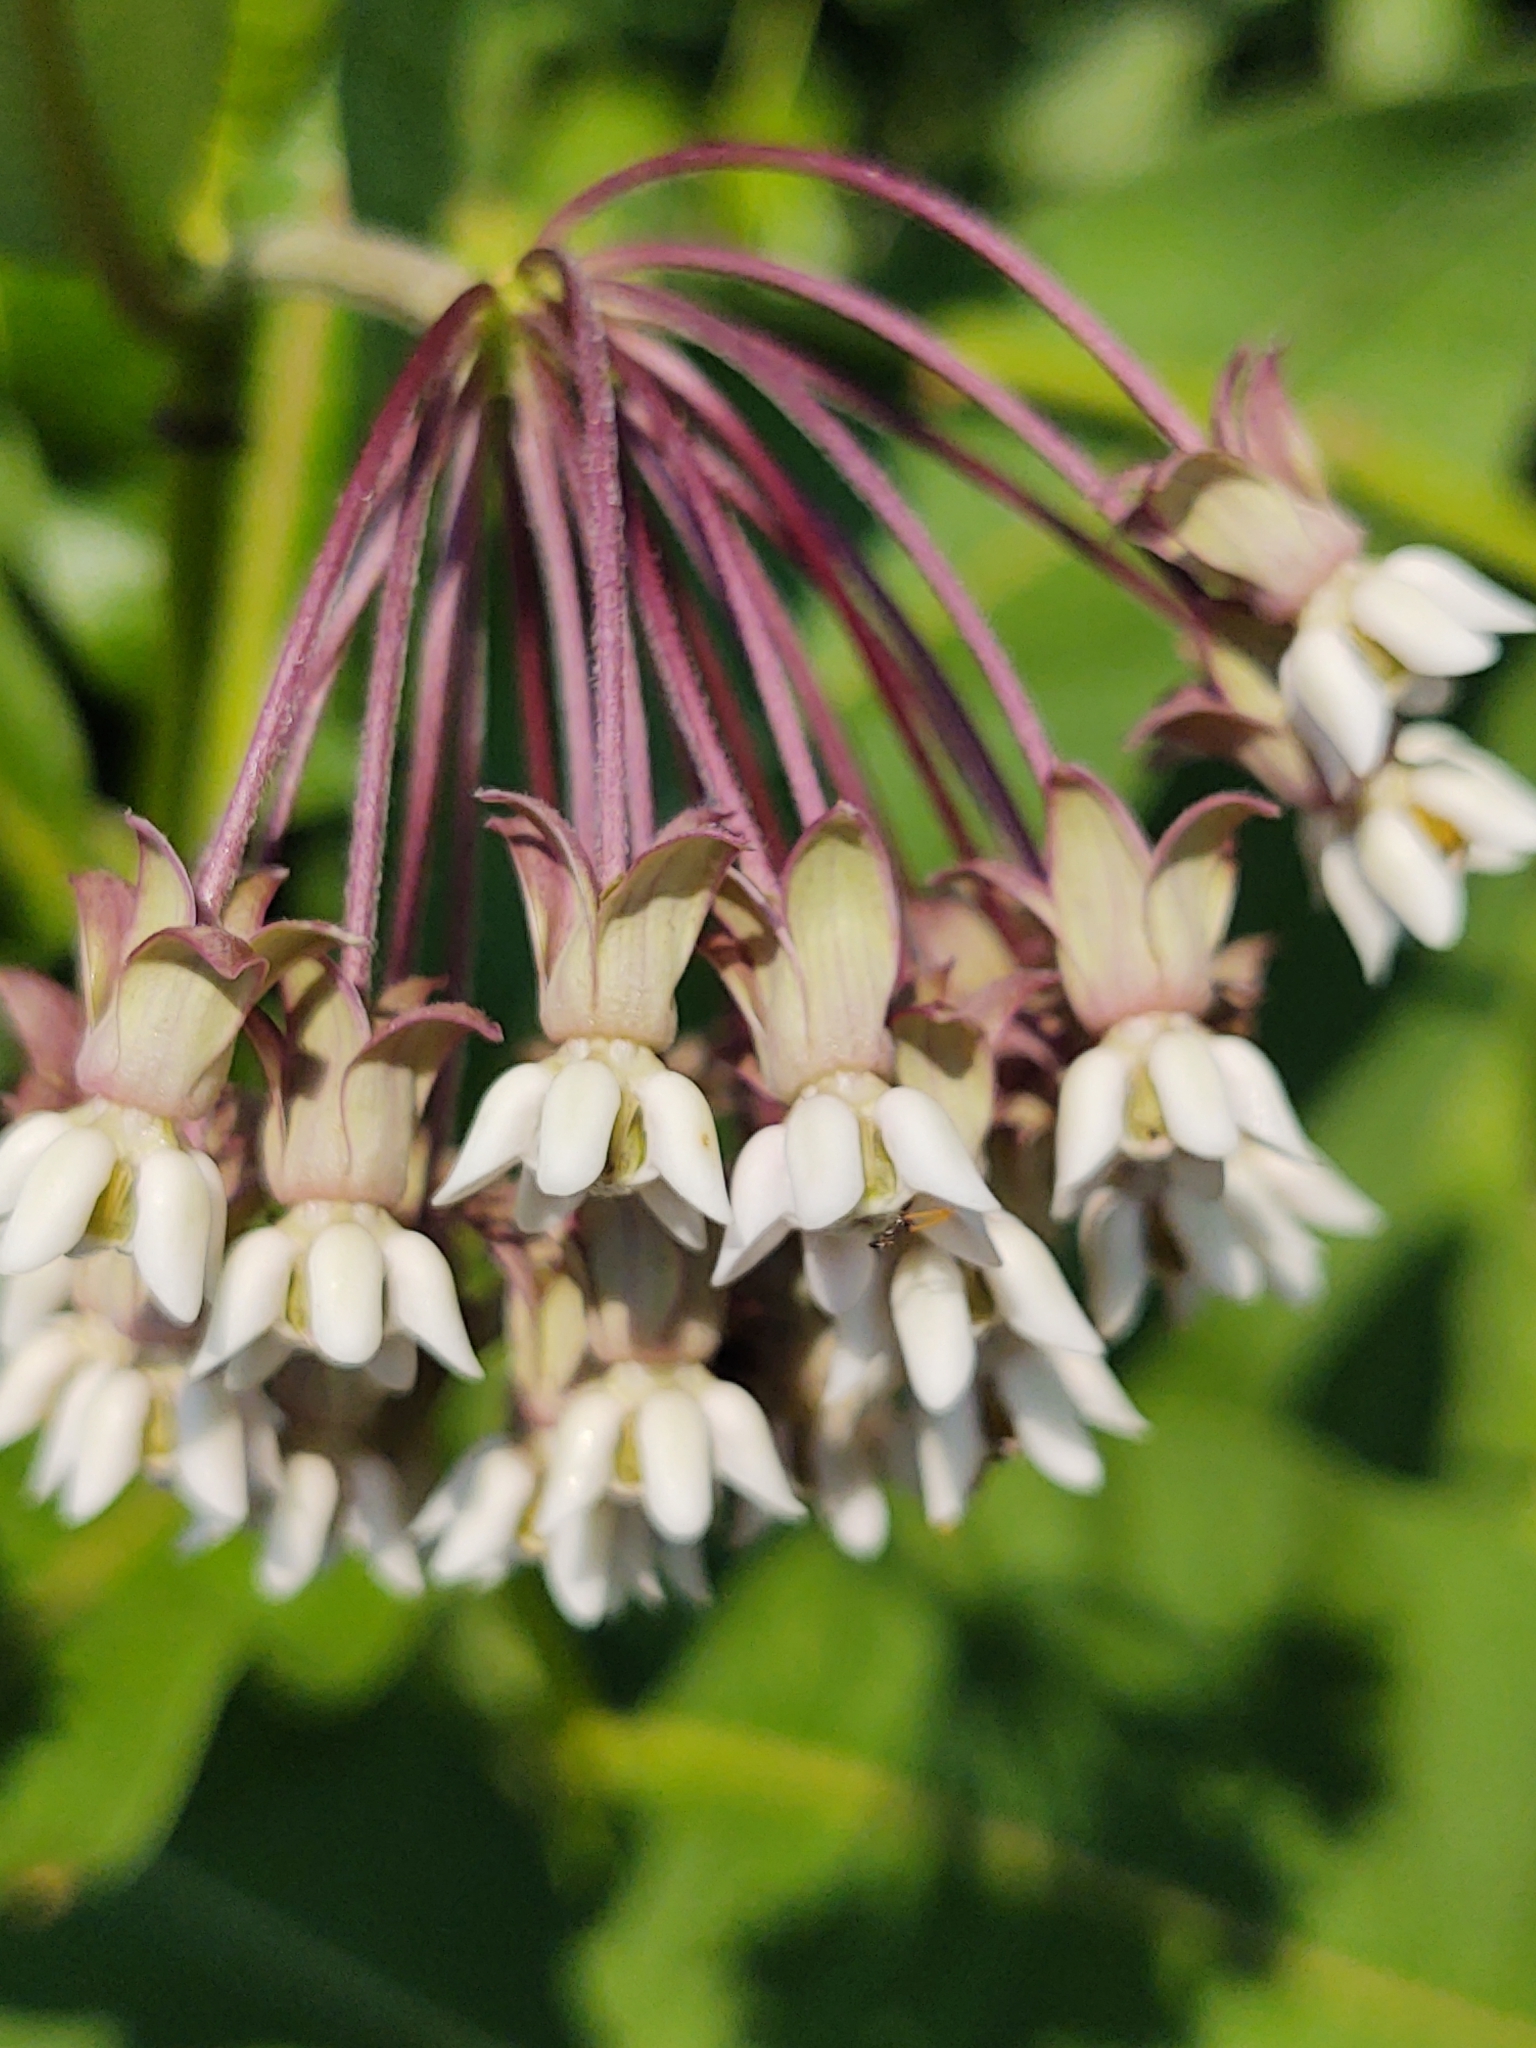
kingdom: Plantae
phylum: Tracheophyta
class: Magnoliopsida
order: Gentianales
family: Apocynaceae
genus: Asclepias
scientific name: Asclepias syriaca
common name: Common milkweed
